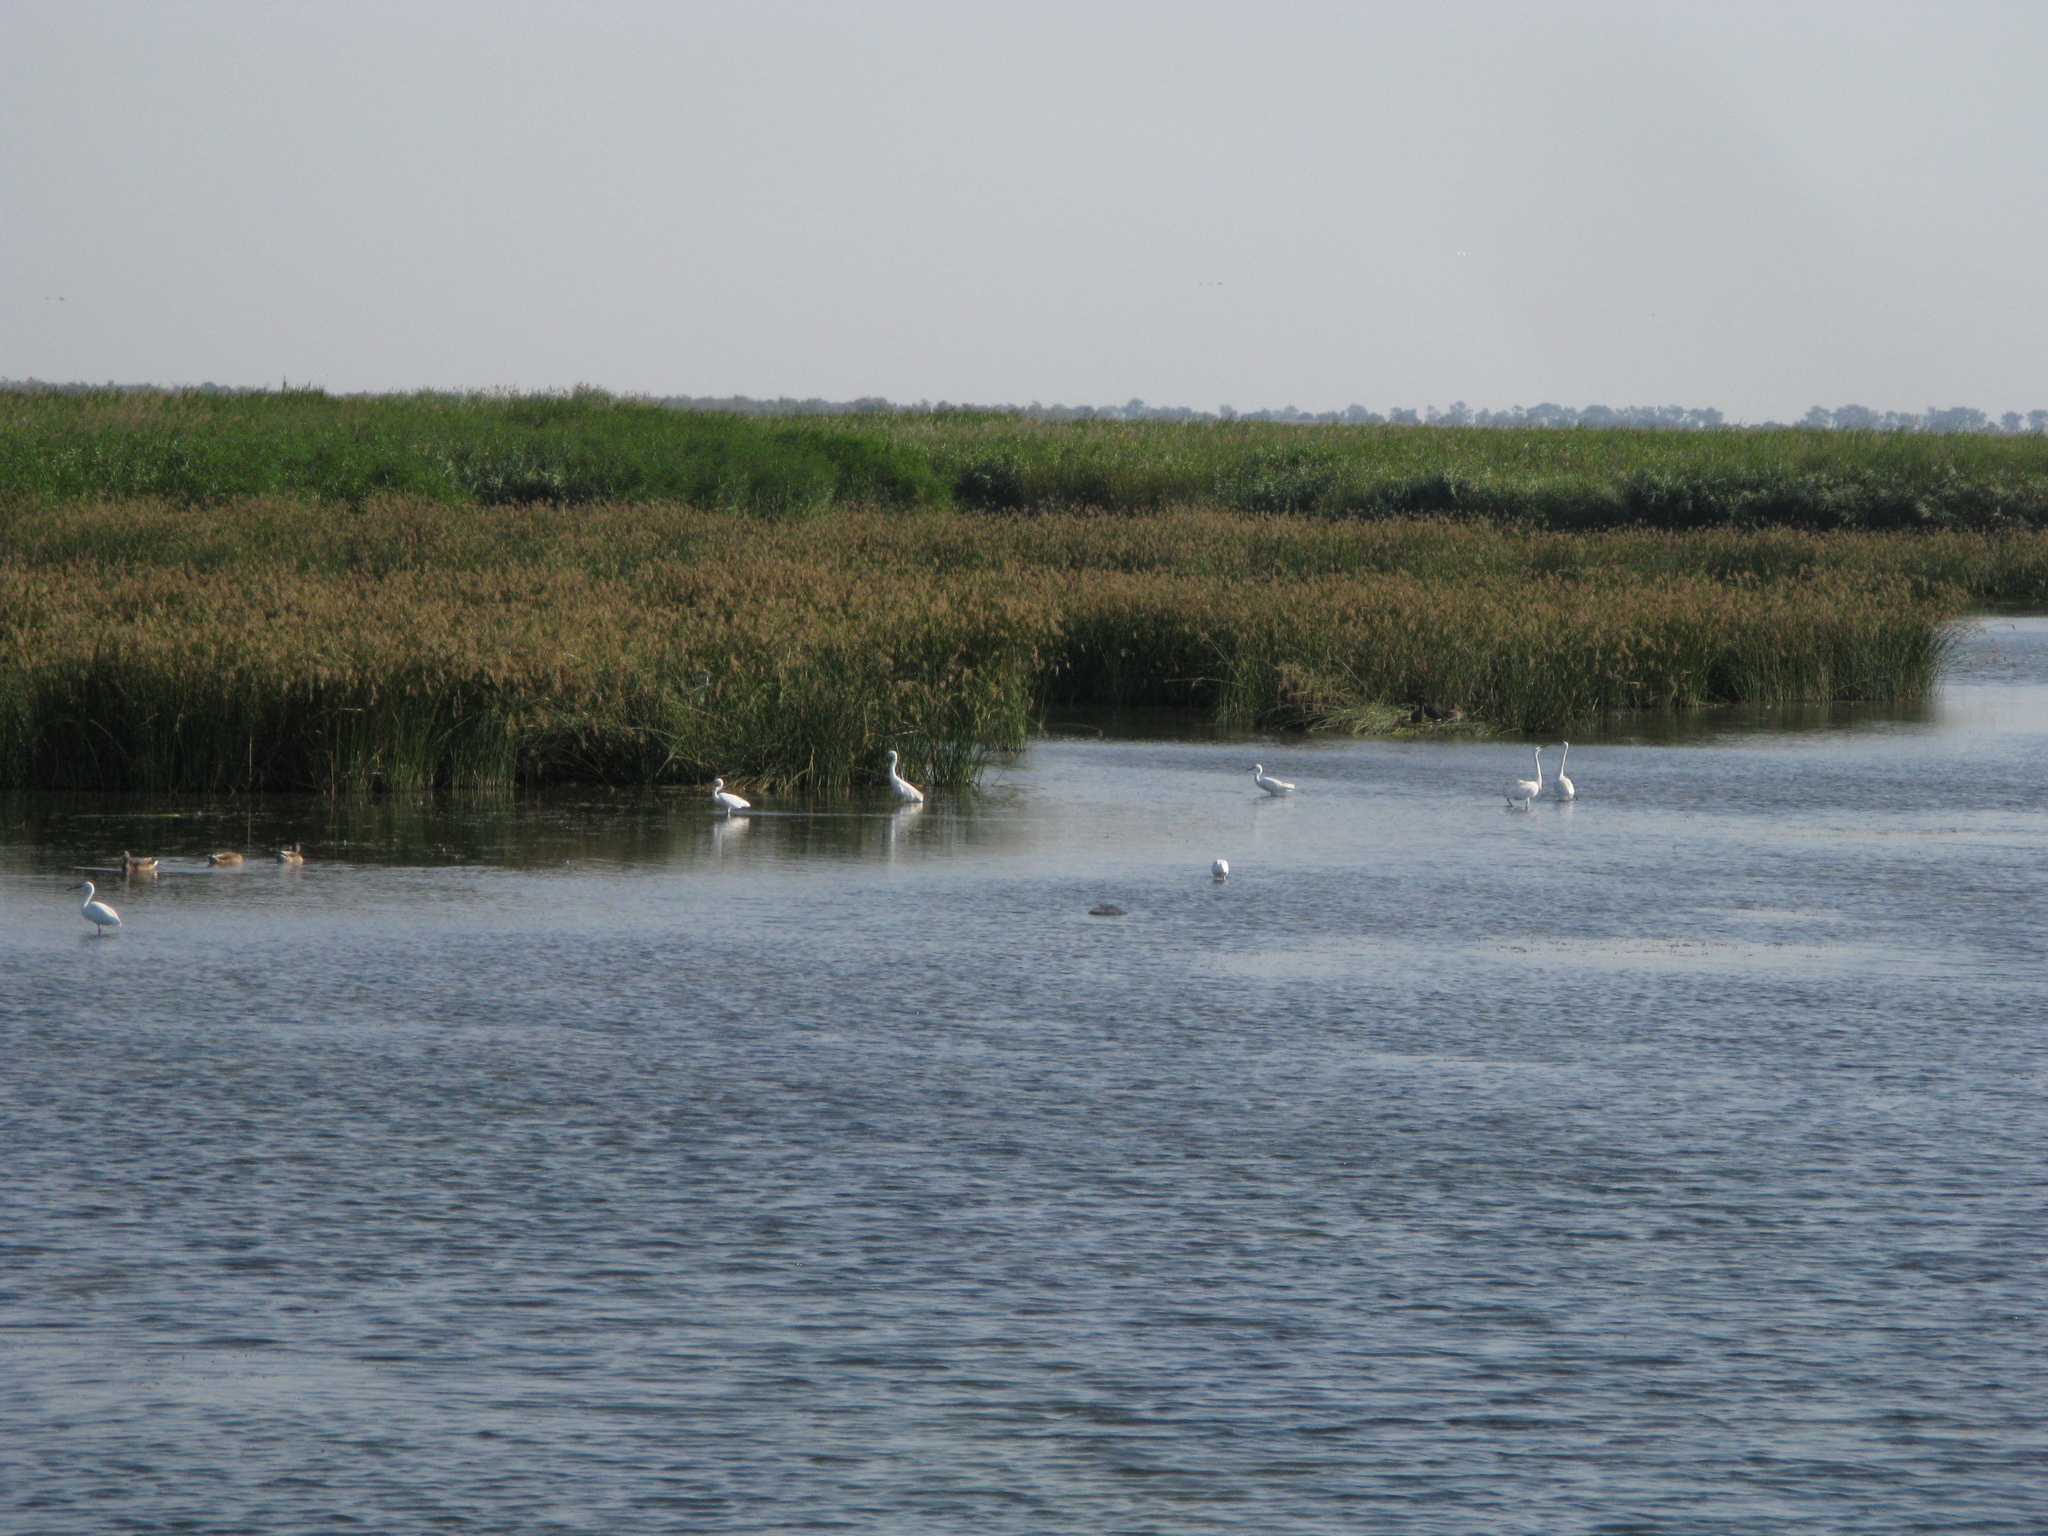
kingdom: Animalia
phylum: Chordata
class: Aves
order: Pelecaniformes
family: Ardeidae
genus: Ardea
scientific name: Ardea alba
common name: Great egret
